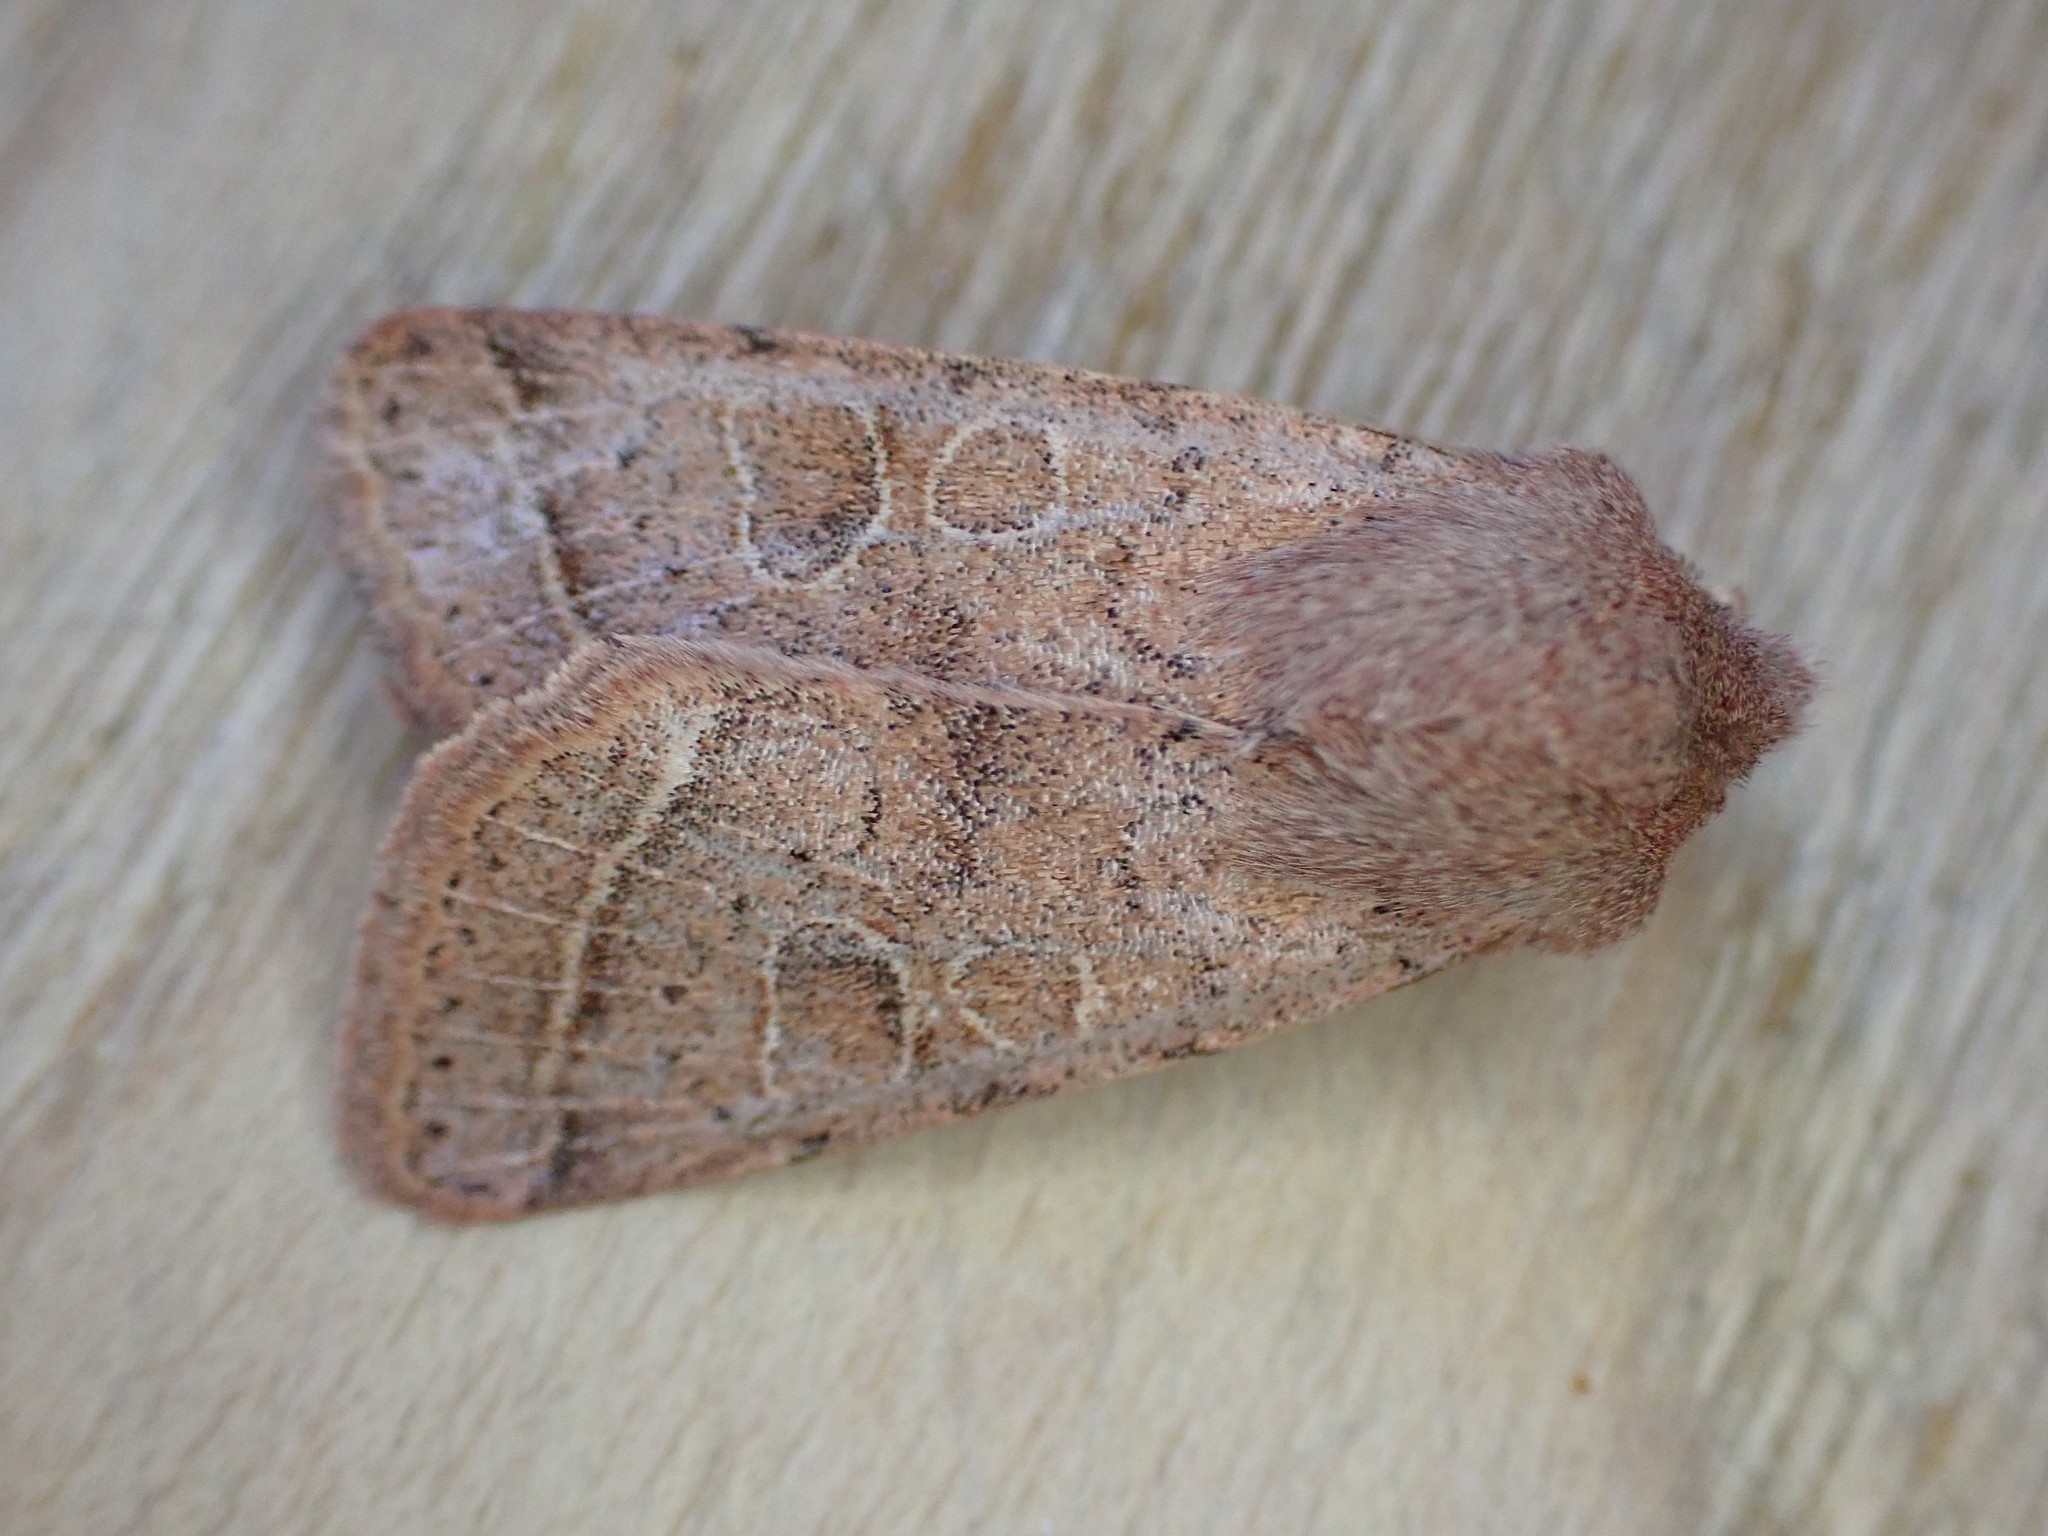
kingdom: Animalia
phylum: Arthropoda
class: Insecta
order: Lepidoptera
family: Noctuidae
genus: Orthosia
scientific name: Orthosia cerasi
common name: Common quaker
